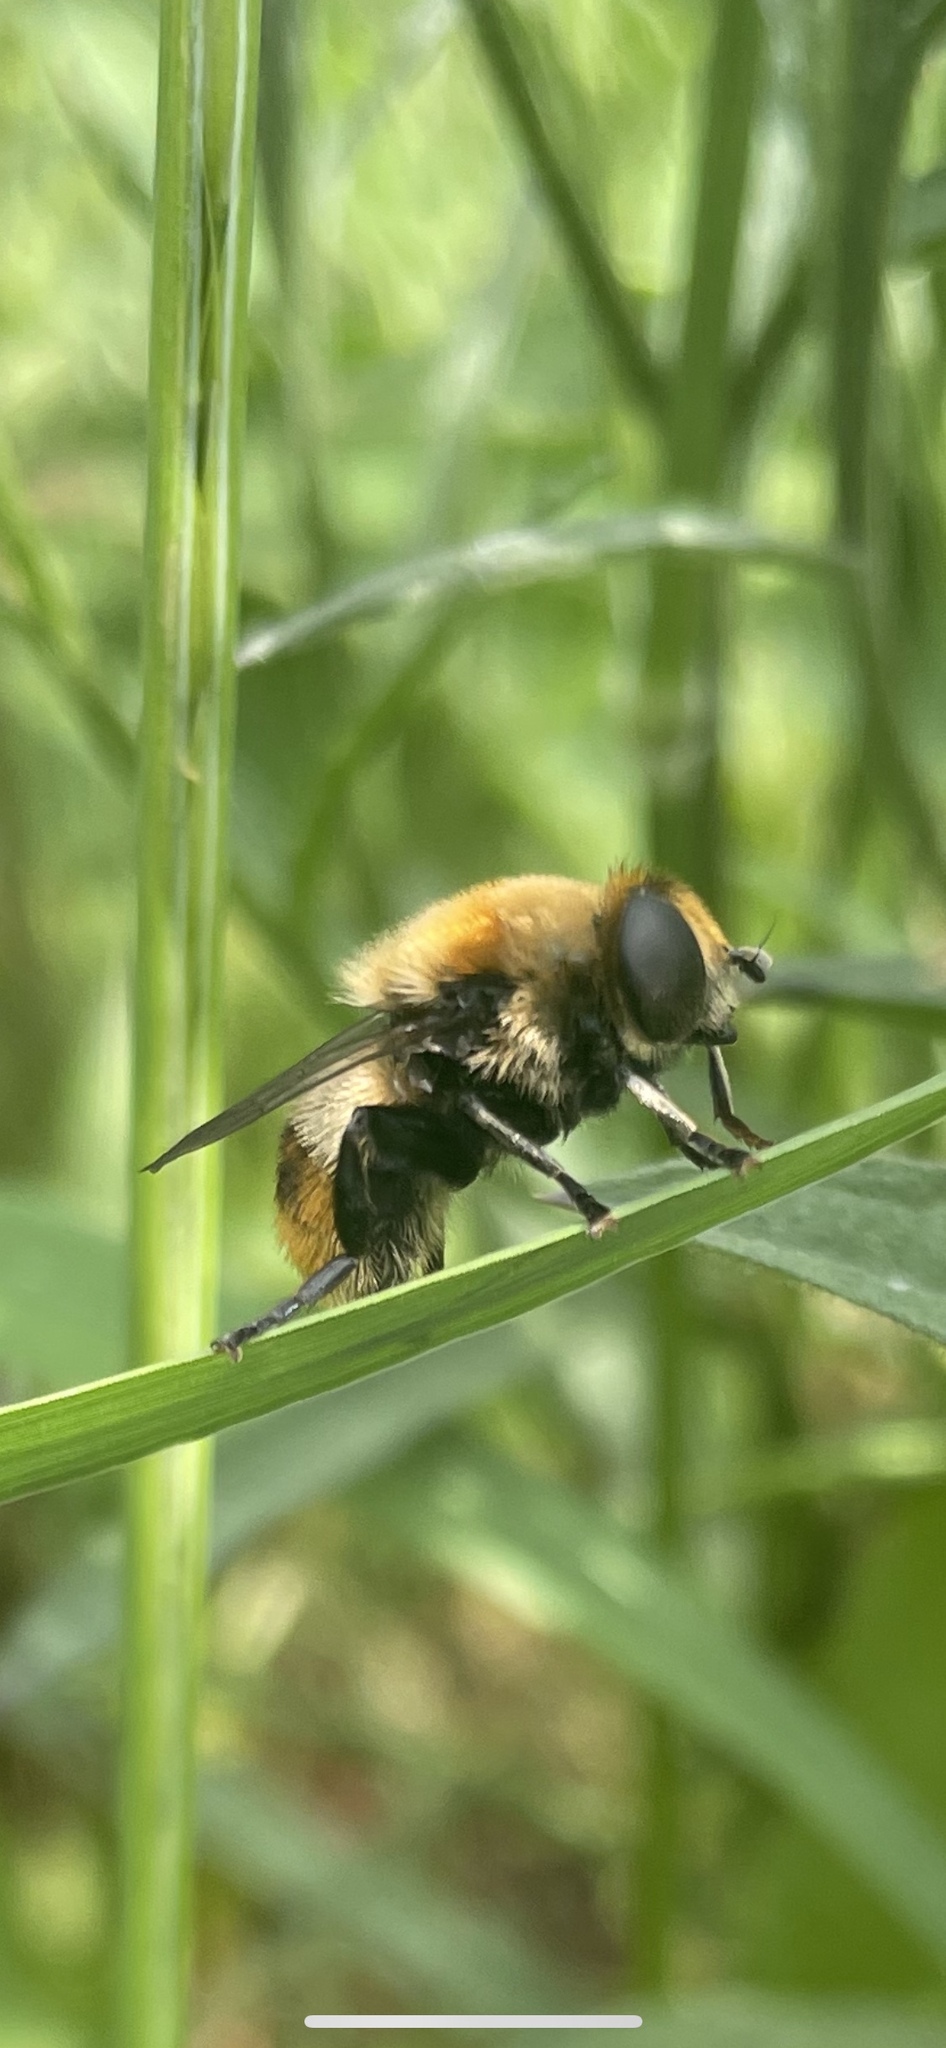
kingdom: Animalia
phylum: Arthropoda
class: Insecta
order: Diptera
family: Syrphidae
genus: Merodon
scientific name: Merodon equestris
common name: Greater bulb-fly
